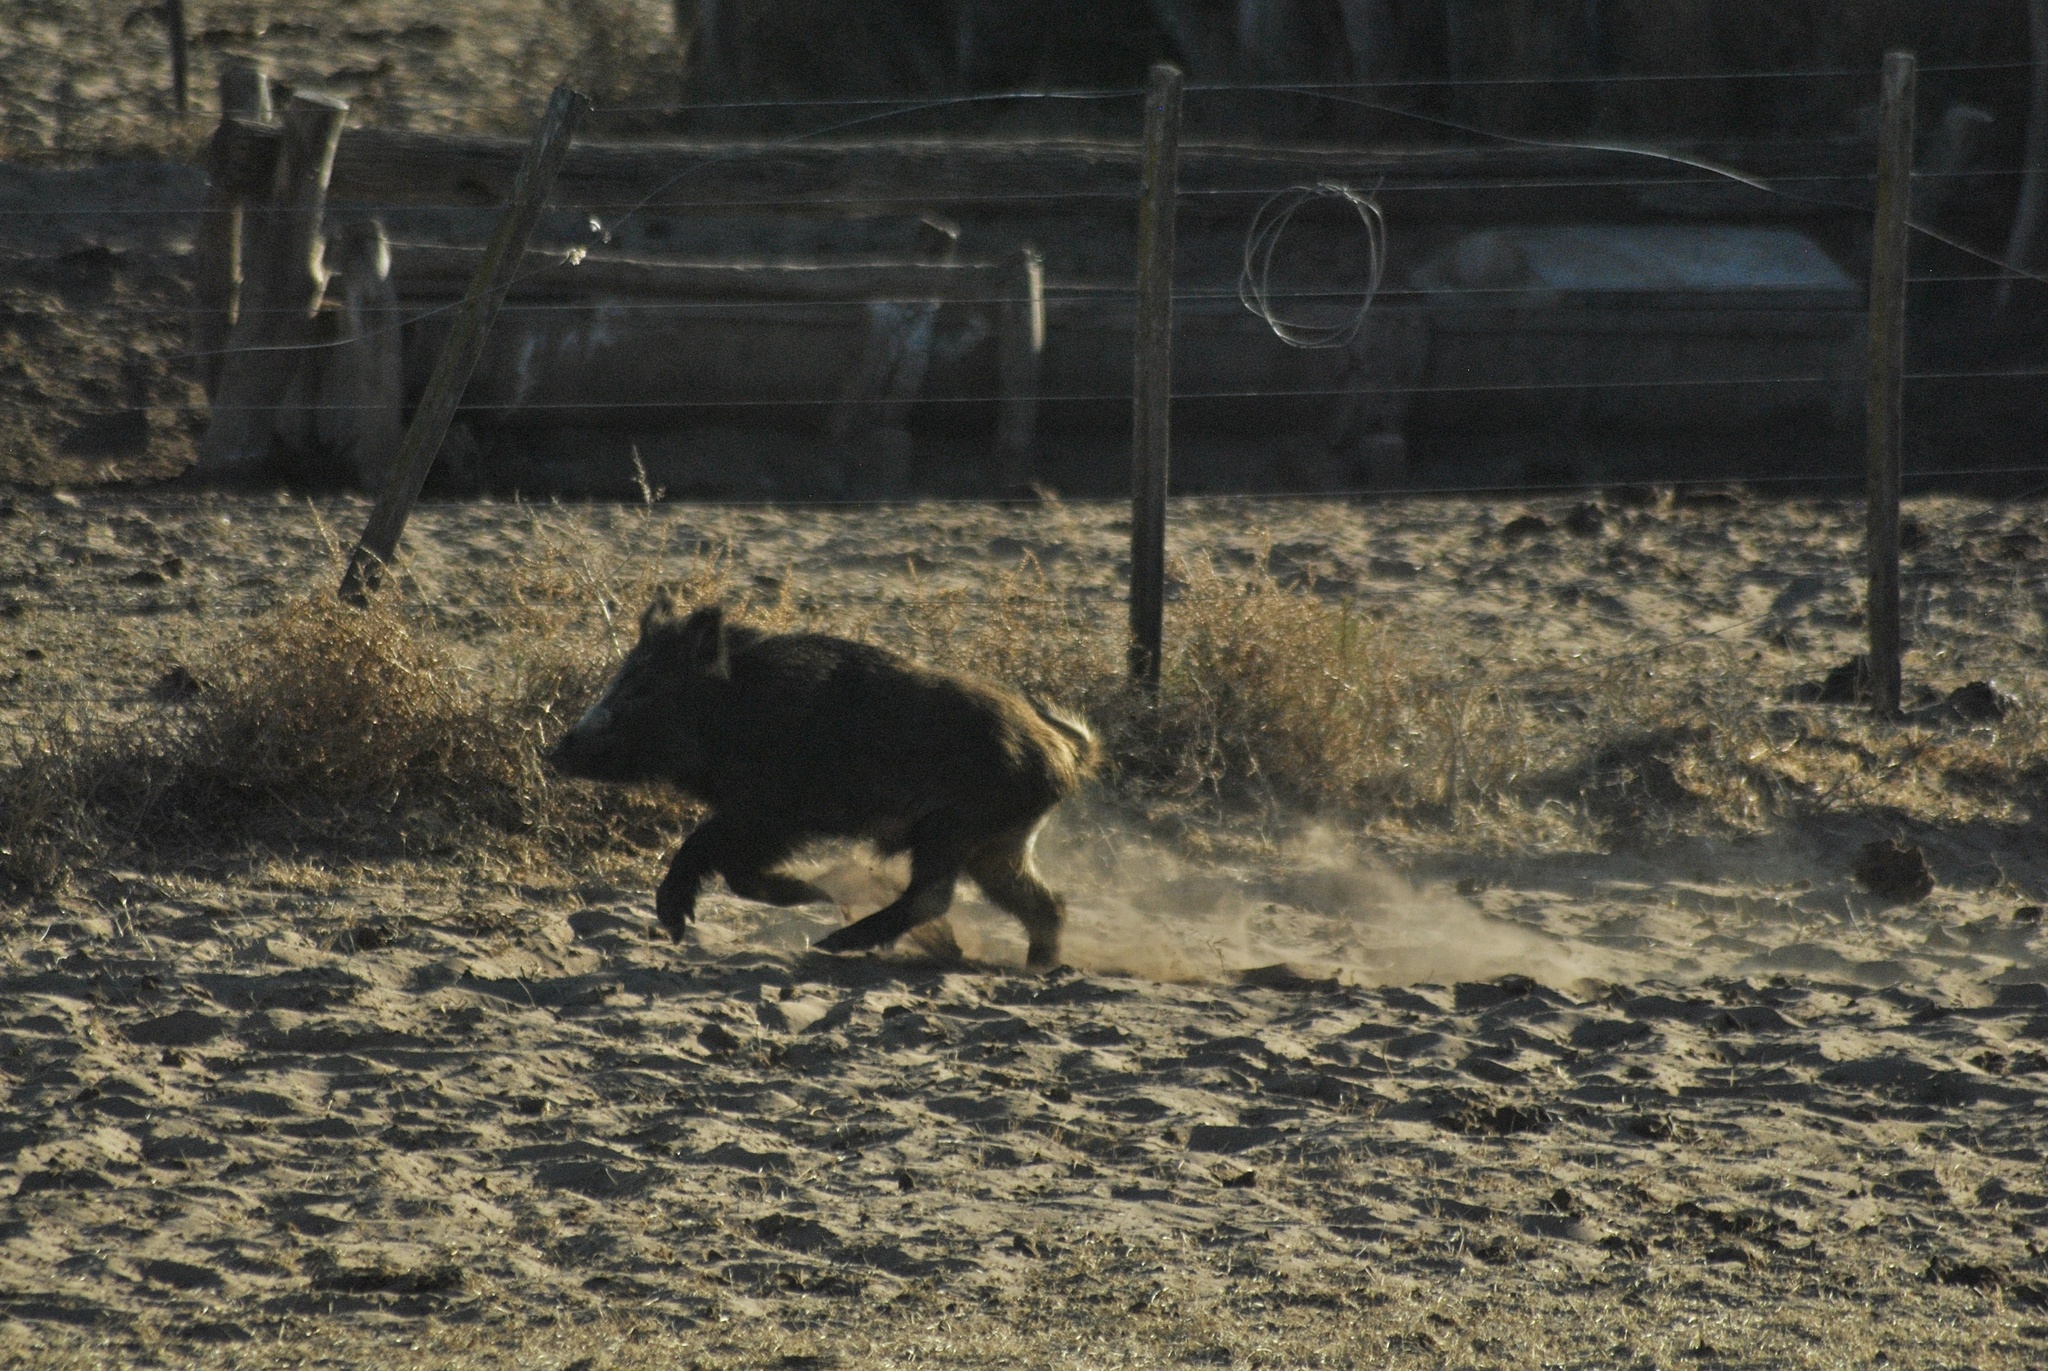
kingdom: Animalia
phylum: Chordata
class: Mammalia
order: Artiodactyla
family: Suidae
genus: Sus
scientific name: Sus scrofa
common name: Wild boar
